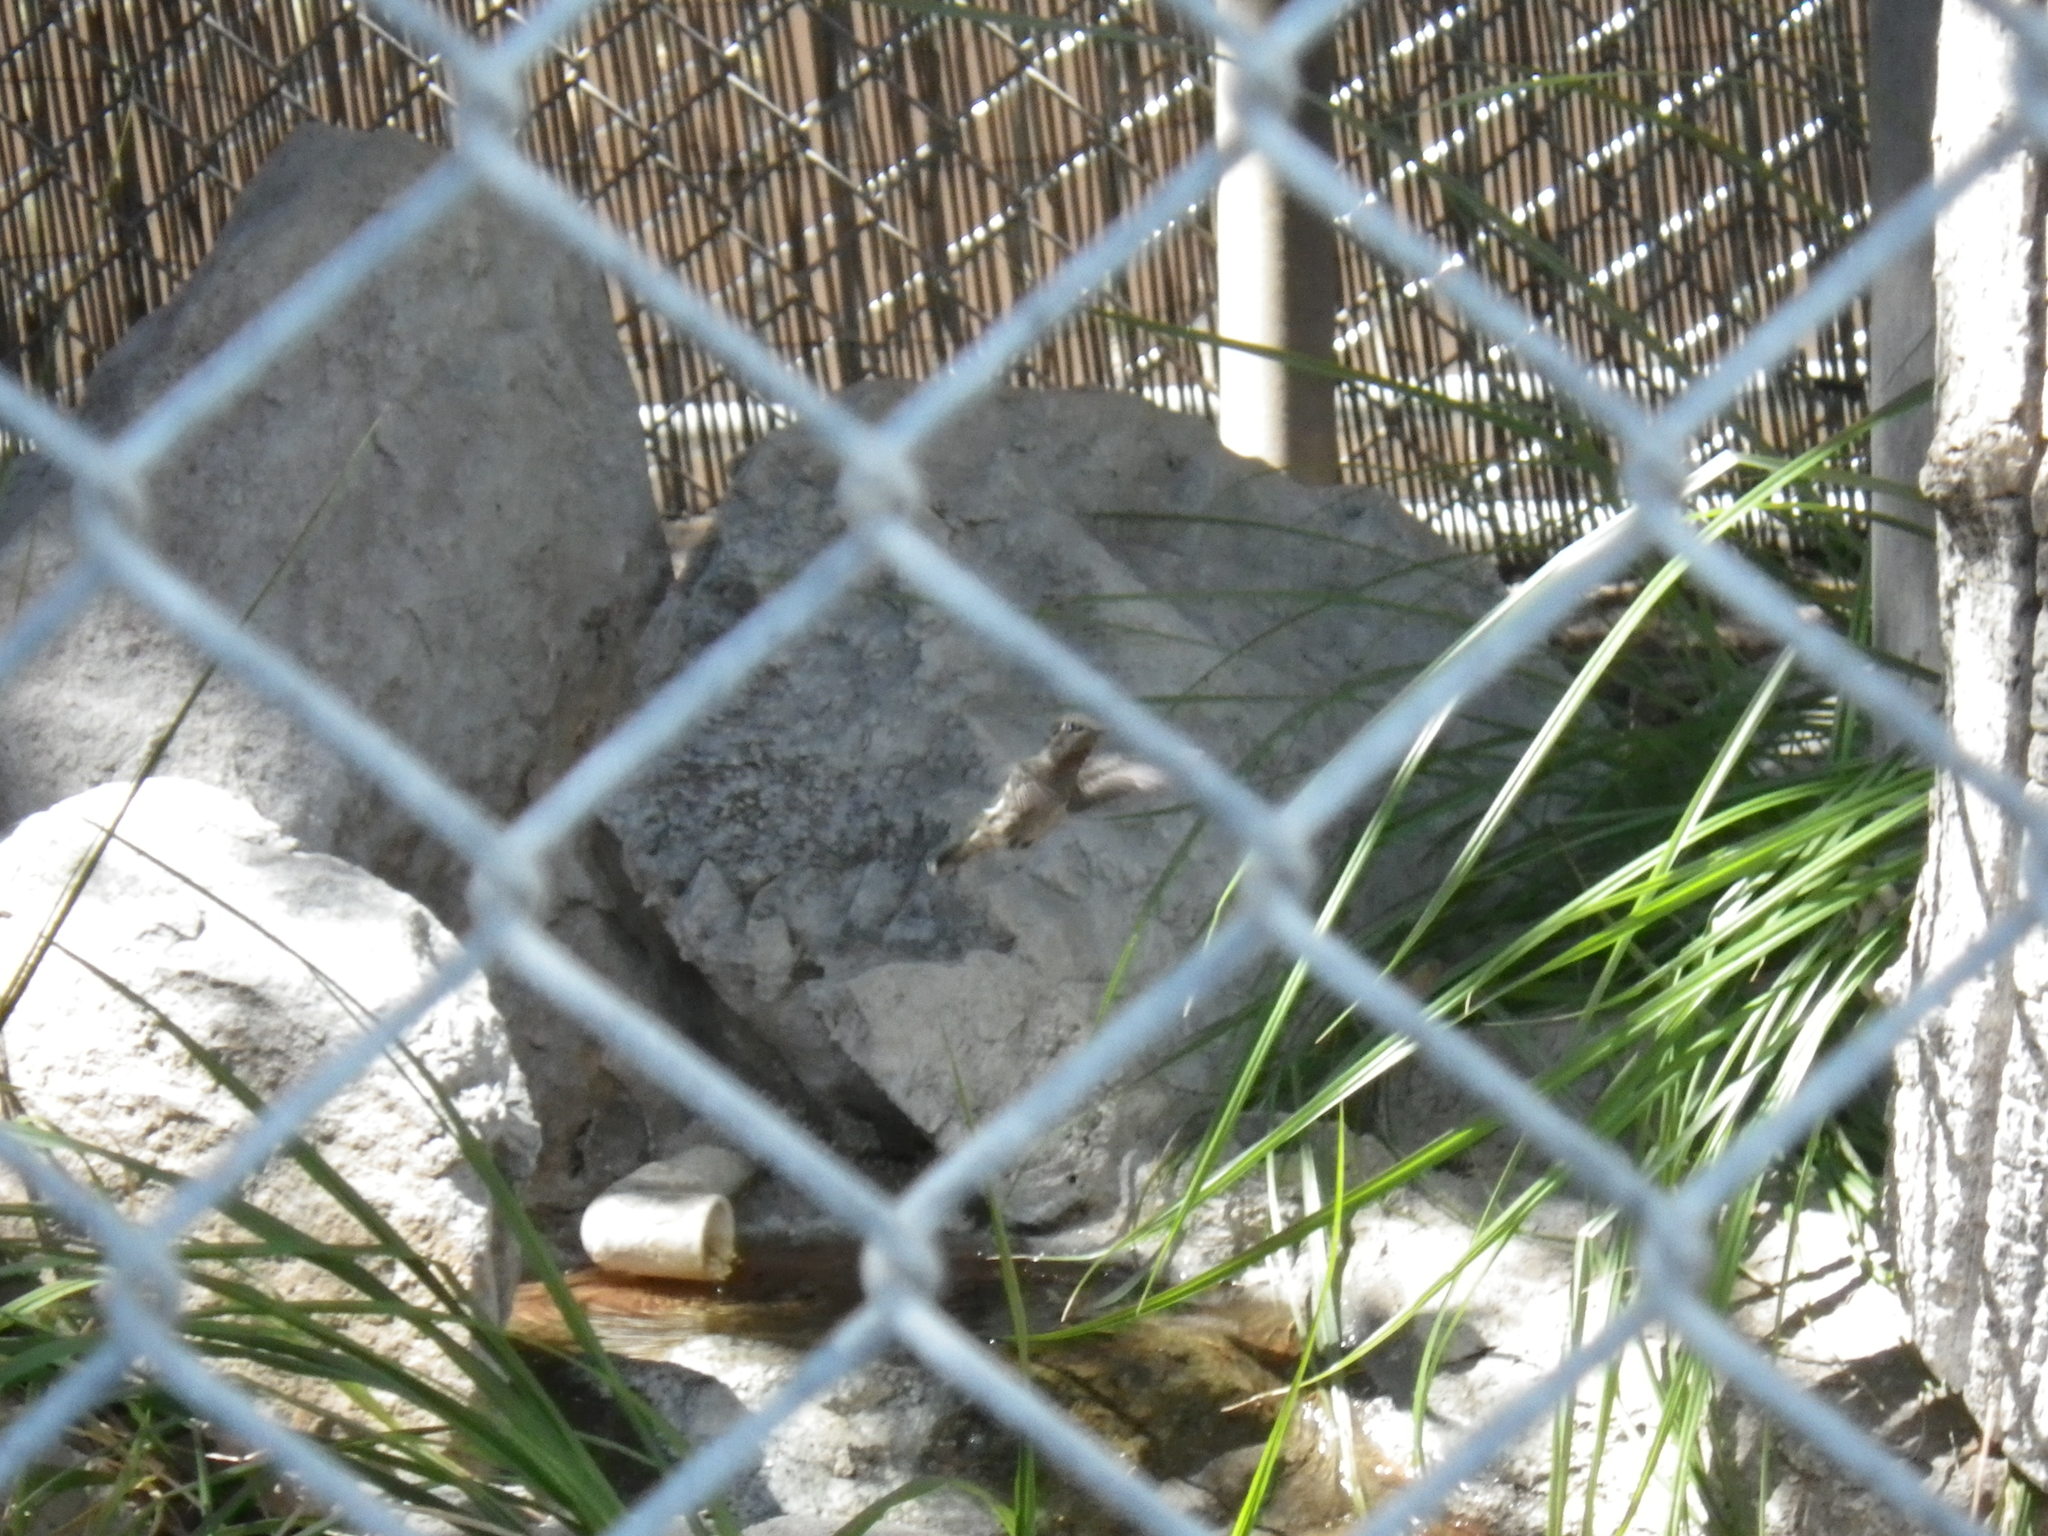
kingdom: Animalia
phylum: Chordata
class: Aves
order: Apodiformes
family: Trochilidae
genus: Calypte
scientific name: Calypte anna
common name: Anna's hummingbird
